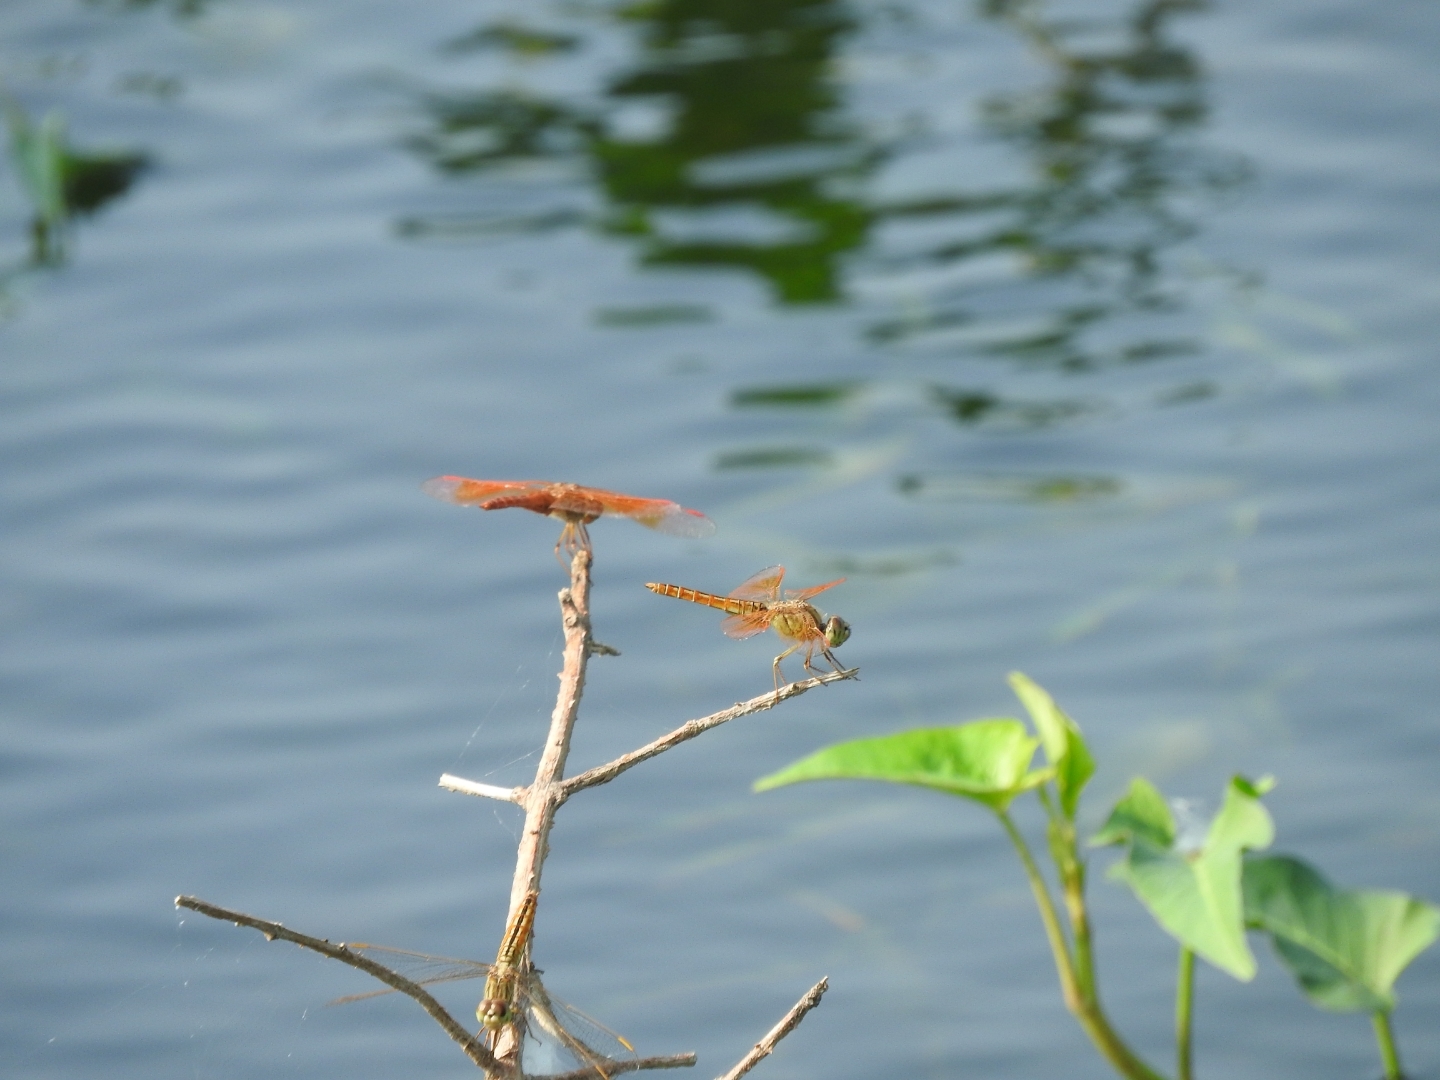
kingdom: Animalia
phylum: Arthropoda
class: Insecta
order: Odonata
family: Libellulidae
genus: Brachythemis
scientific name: Brachythemis contaminata
